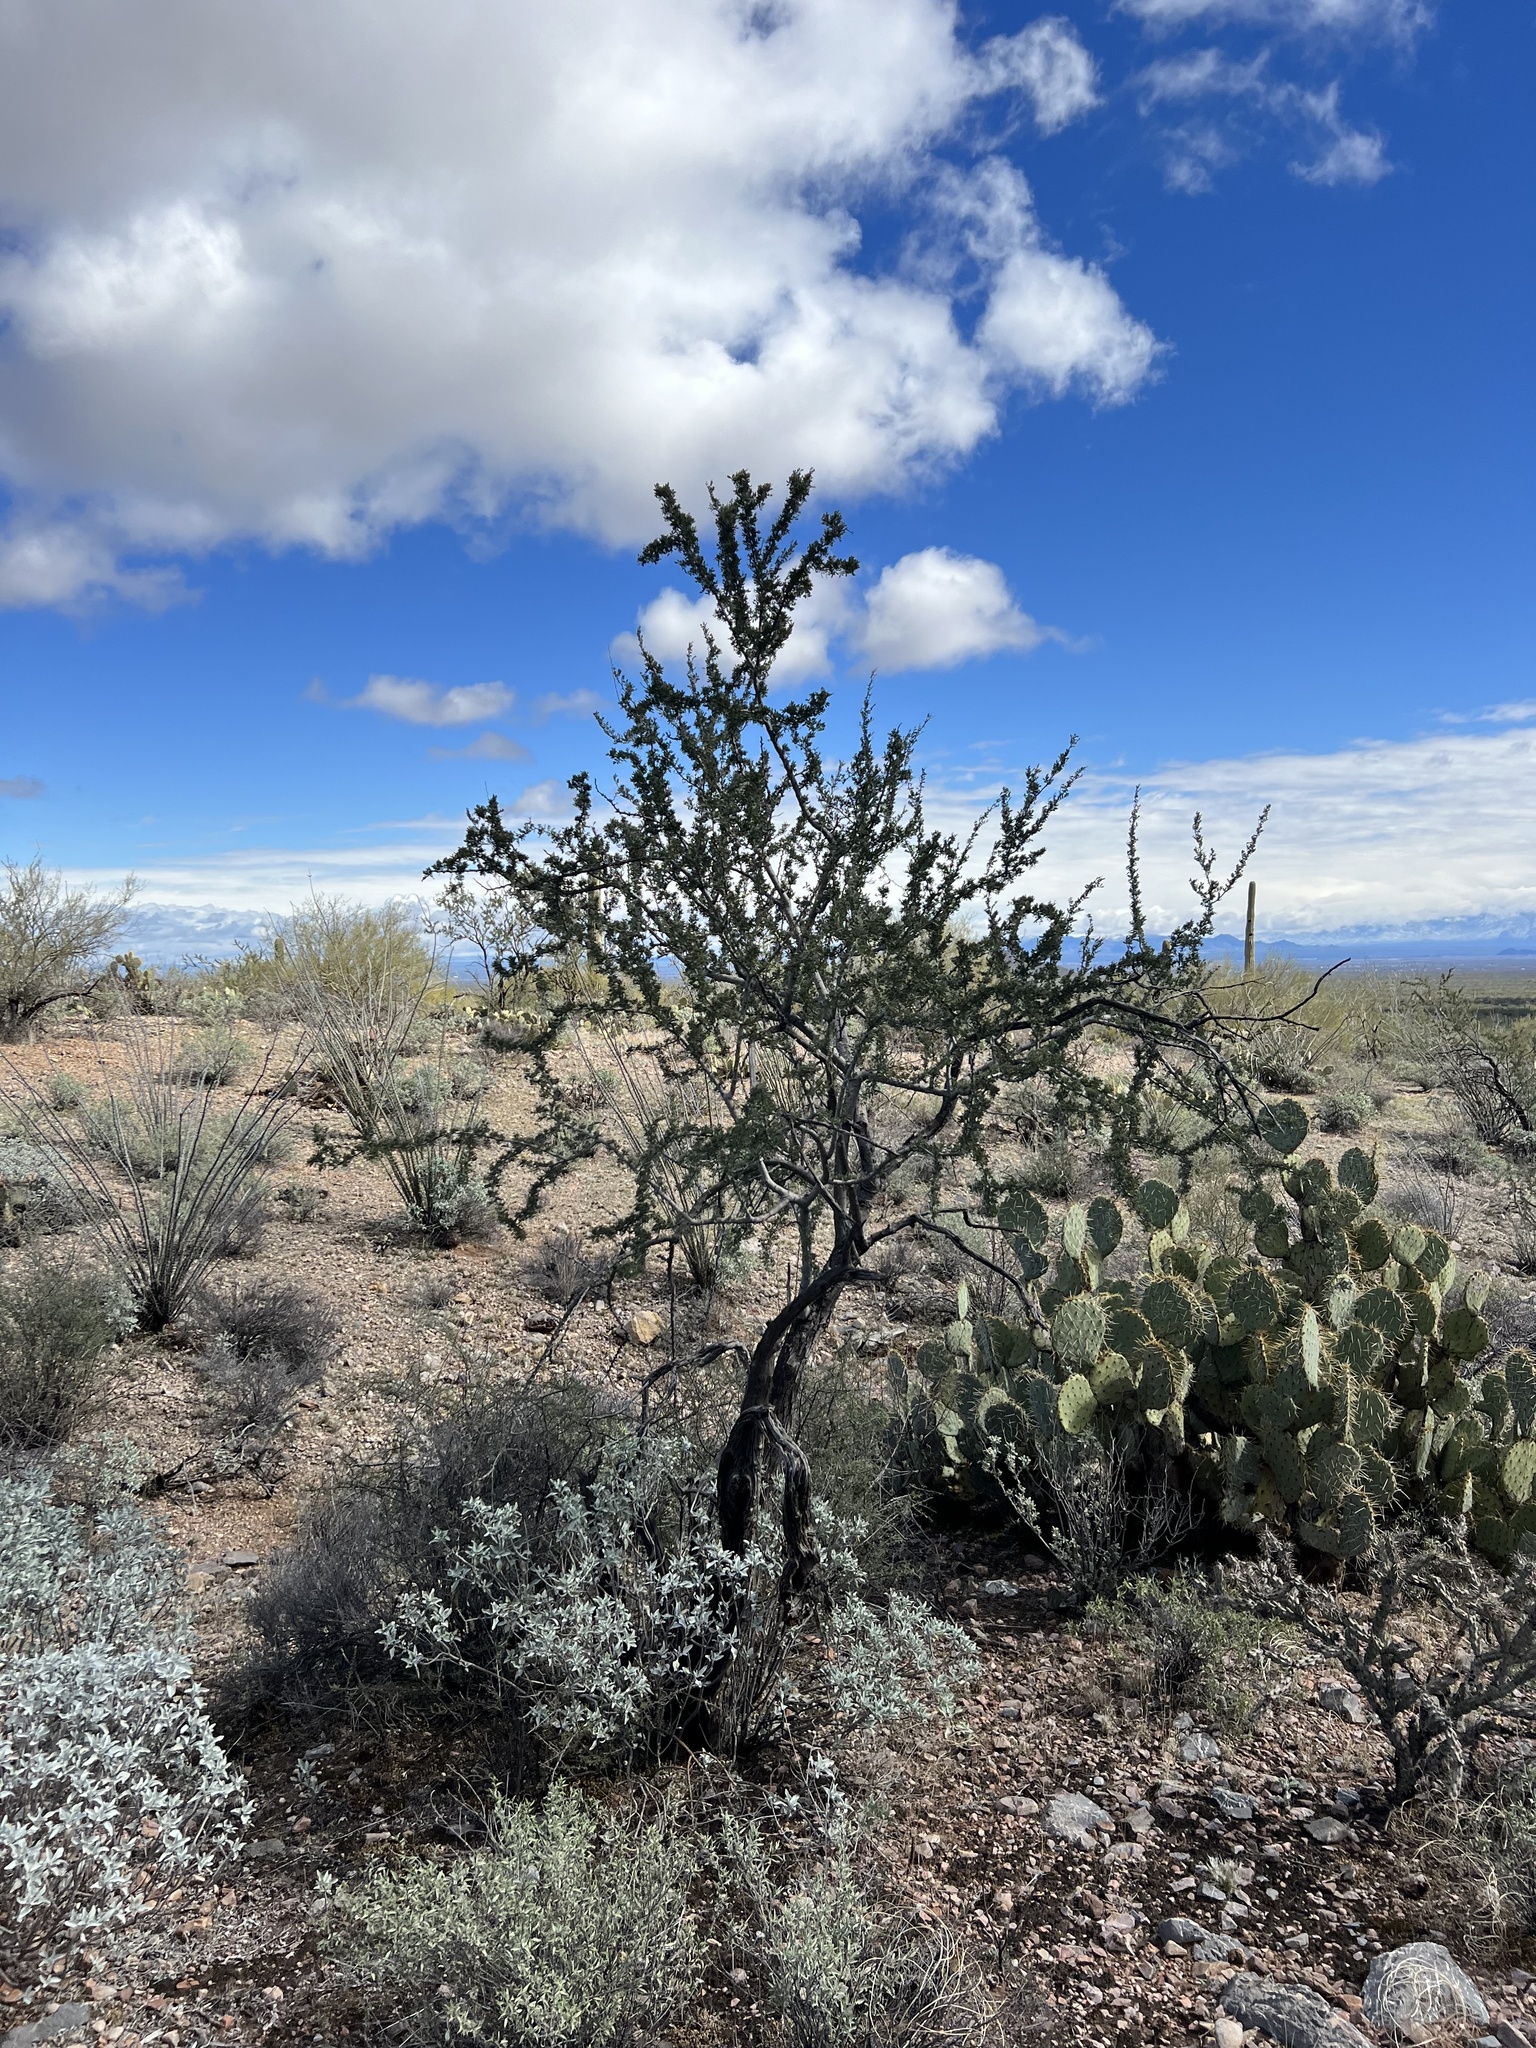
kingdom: Plantae
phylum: Tracheophyta
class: Magnoliopsida
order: Fabales
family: Fabaceae
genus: Olneya
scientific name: Olneya tesota
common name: Desert ironwood
